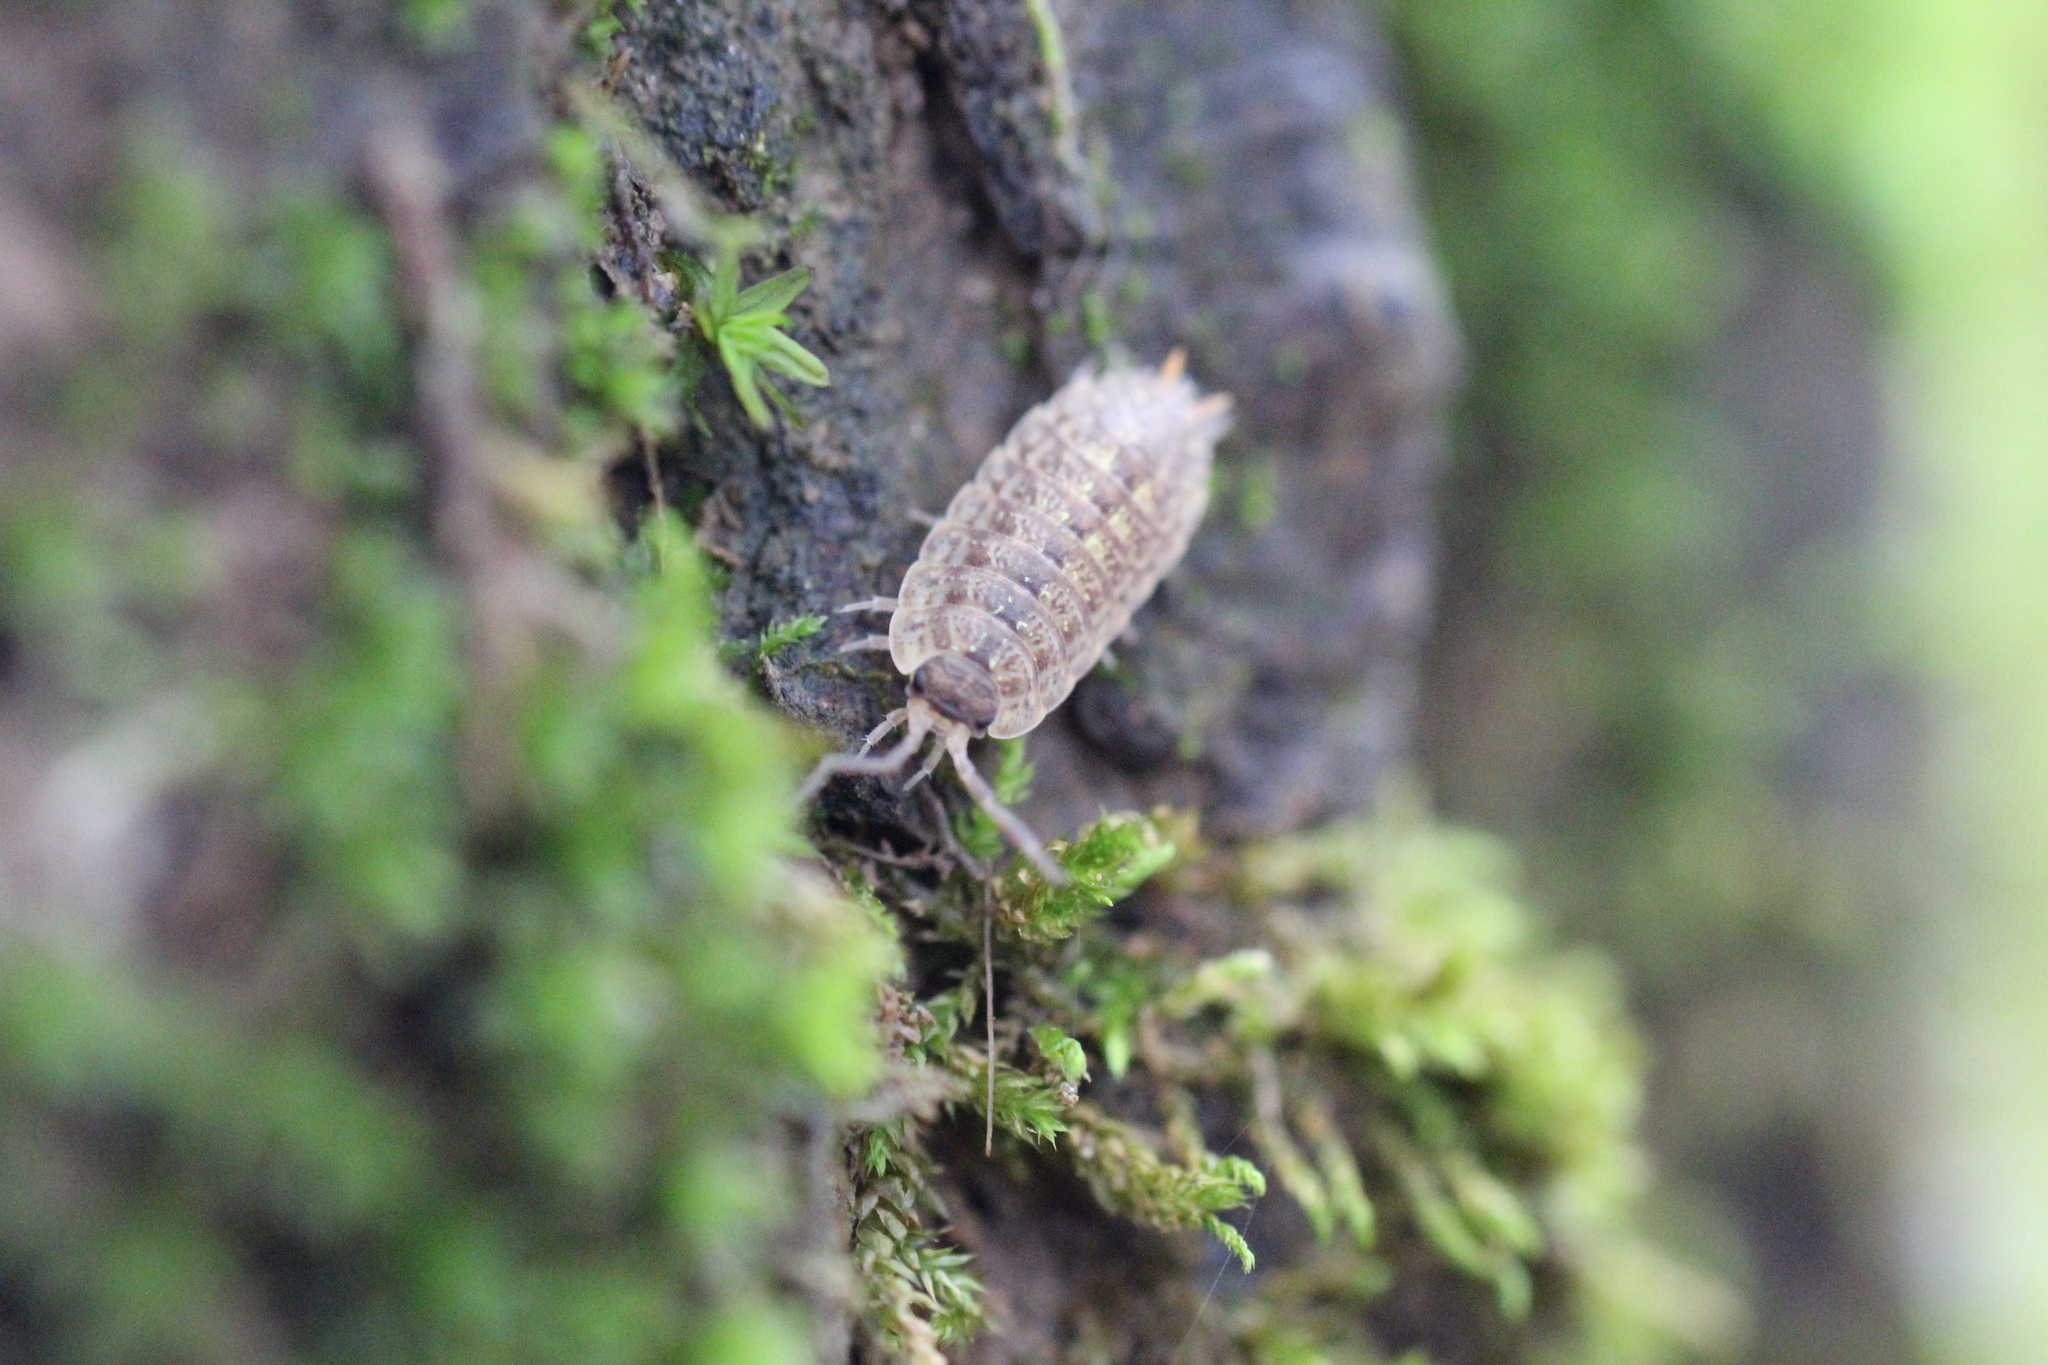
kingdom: Animalia
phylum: Arthropoda
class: Malacostraca
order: Isopoda
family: Porcellionidae
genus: Porcellio
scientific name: Porcellio monticola
